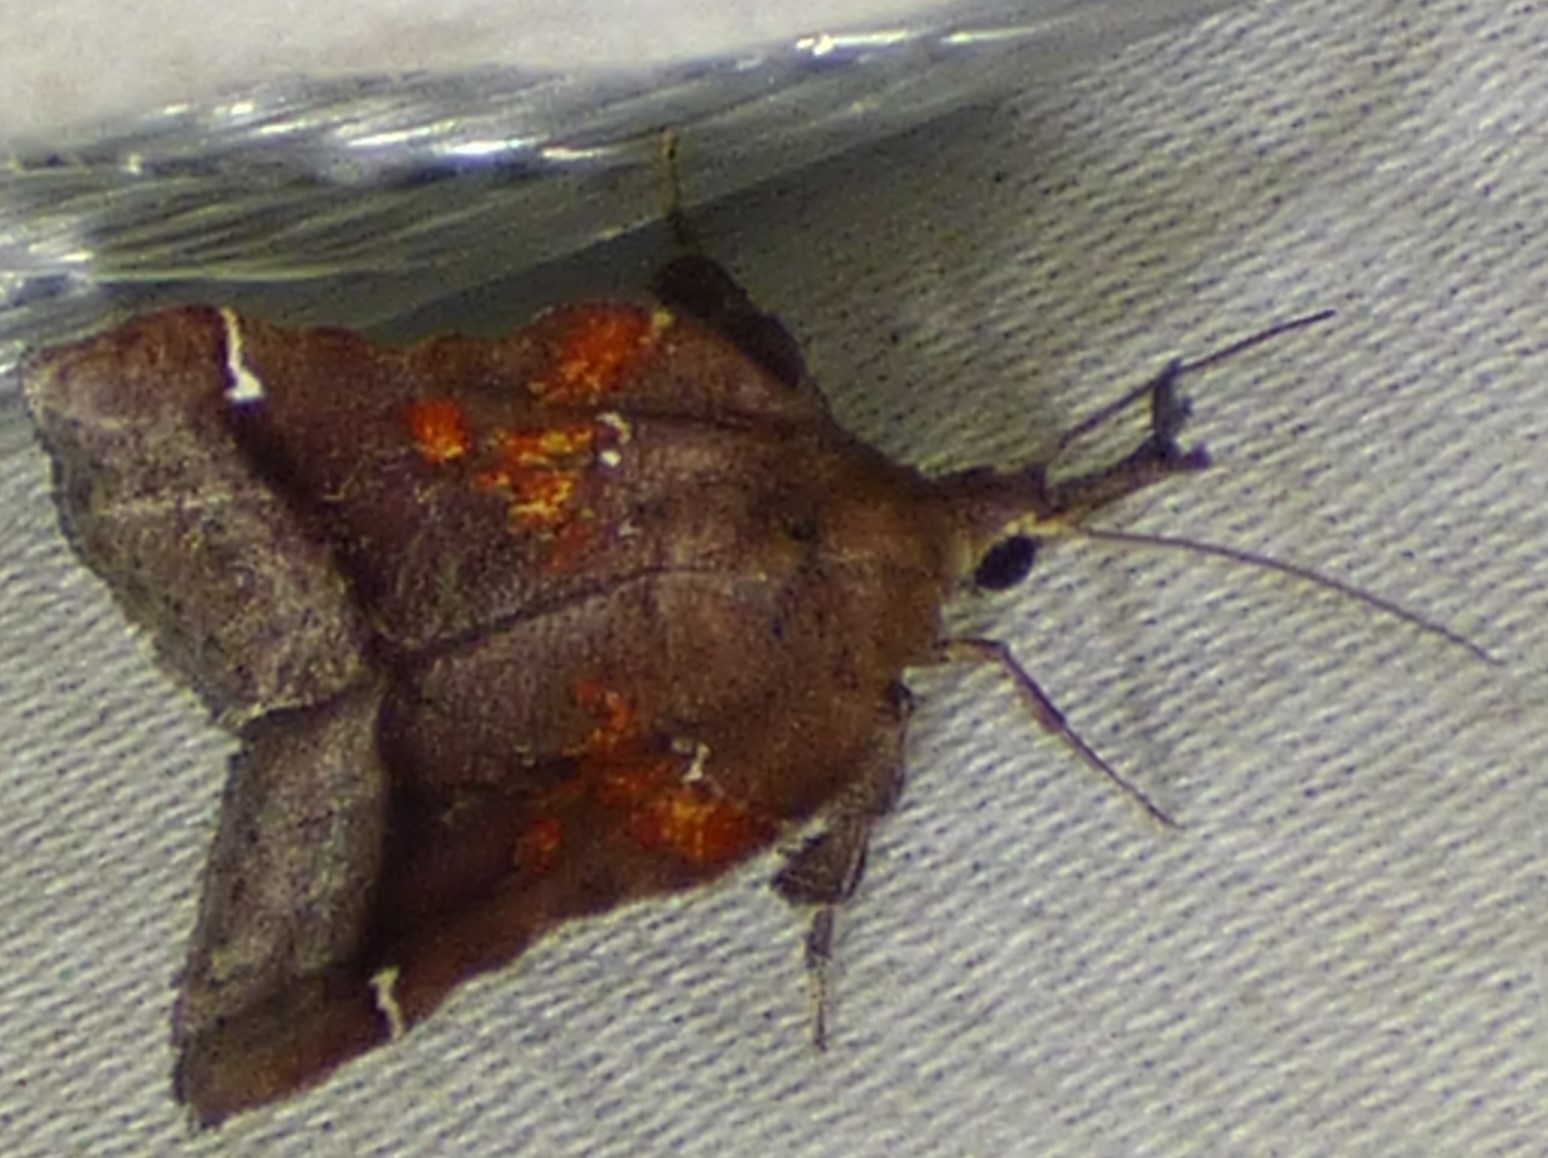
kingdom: Animalia
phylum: Arthropoda
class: Insecta
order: Lepidoptera
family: Pyralidae
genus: Clydonopteron
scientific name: Clydonopteron sacculana
